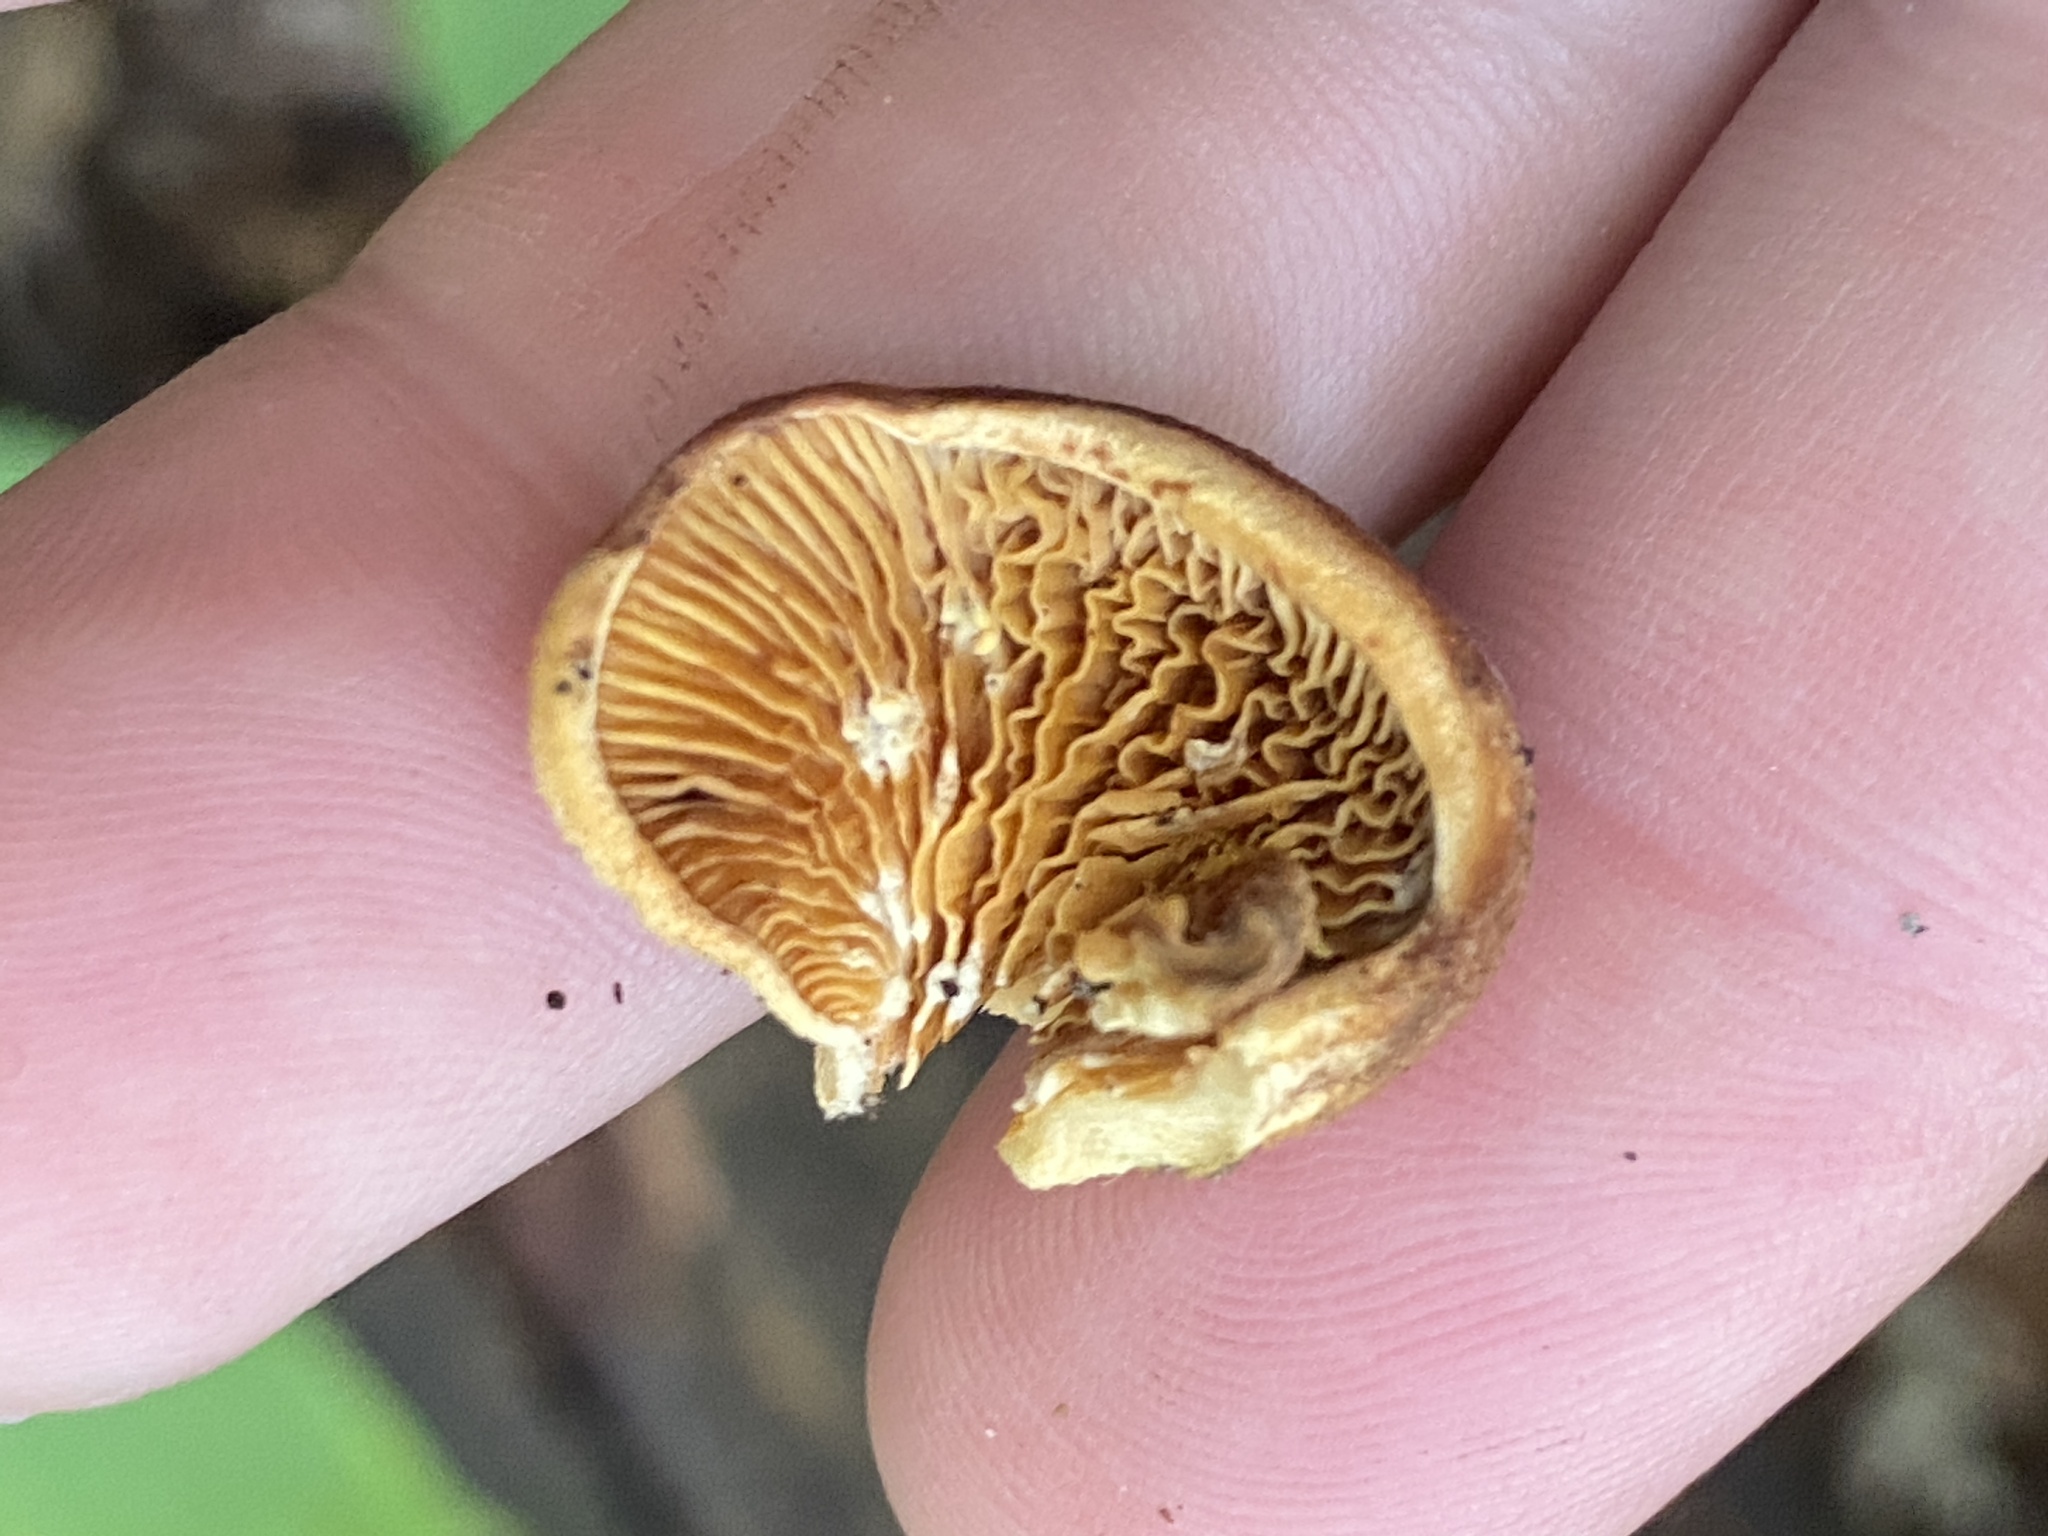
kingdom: Fungi
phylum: Basidiomycota
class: Agaricomycetes
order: Agaricales
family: Phyllotopsidaceae
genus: Phyllotopsis
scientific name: Phyllotopsis nidulans
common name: Orange mock oyster
